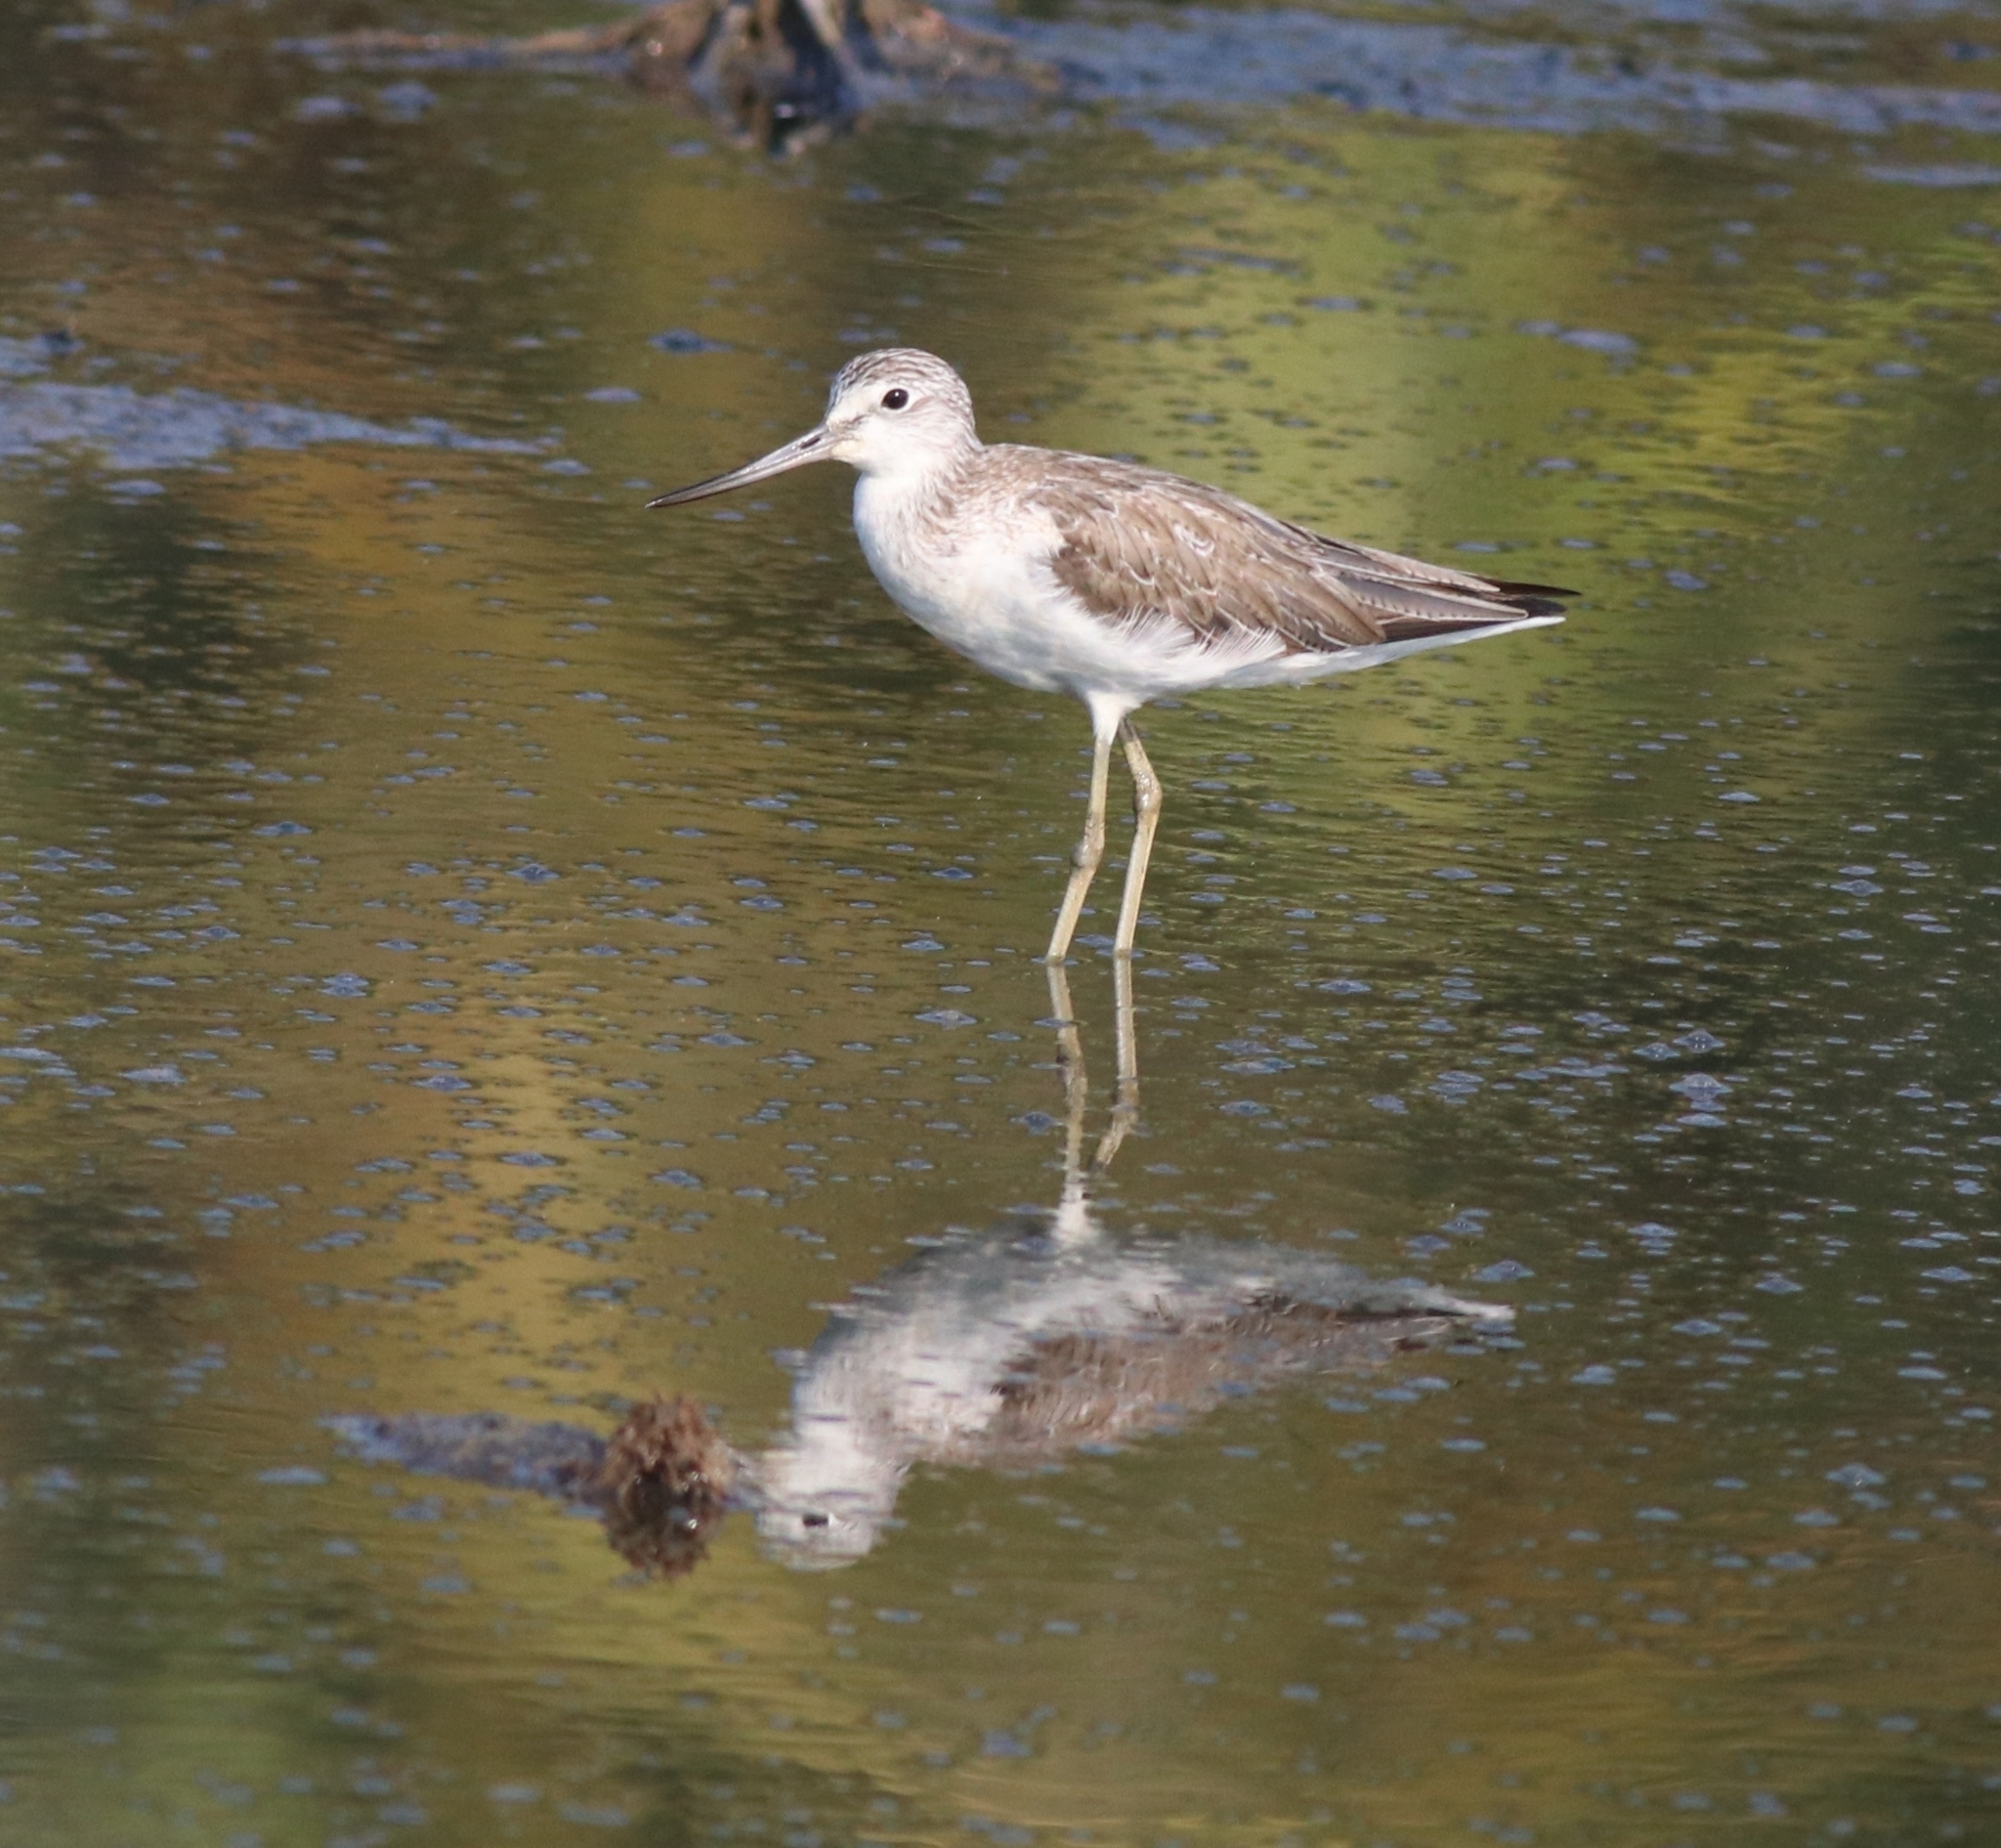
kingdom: Animalia
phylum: Chordata
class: Aves
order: Charadriiformes
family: Scolopacidae
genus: Tringa
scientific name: Tringa nebularia
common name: Common greenshank
